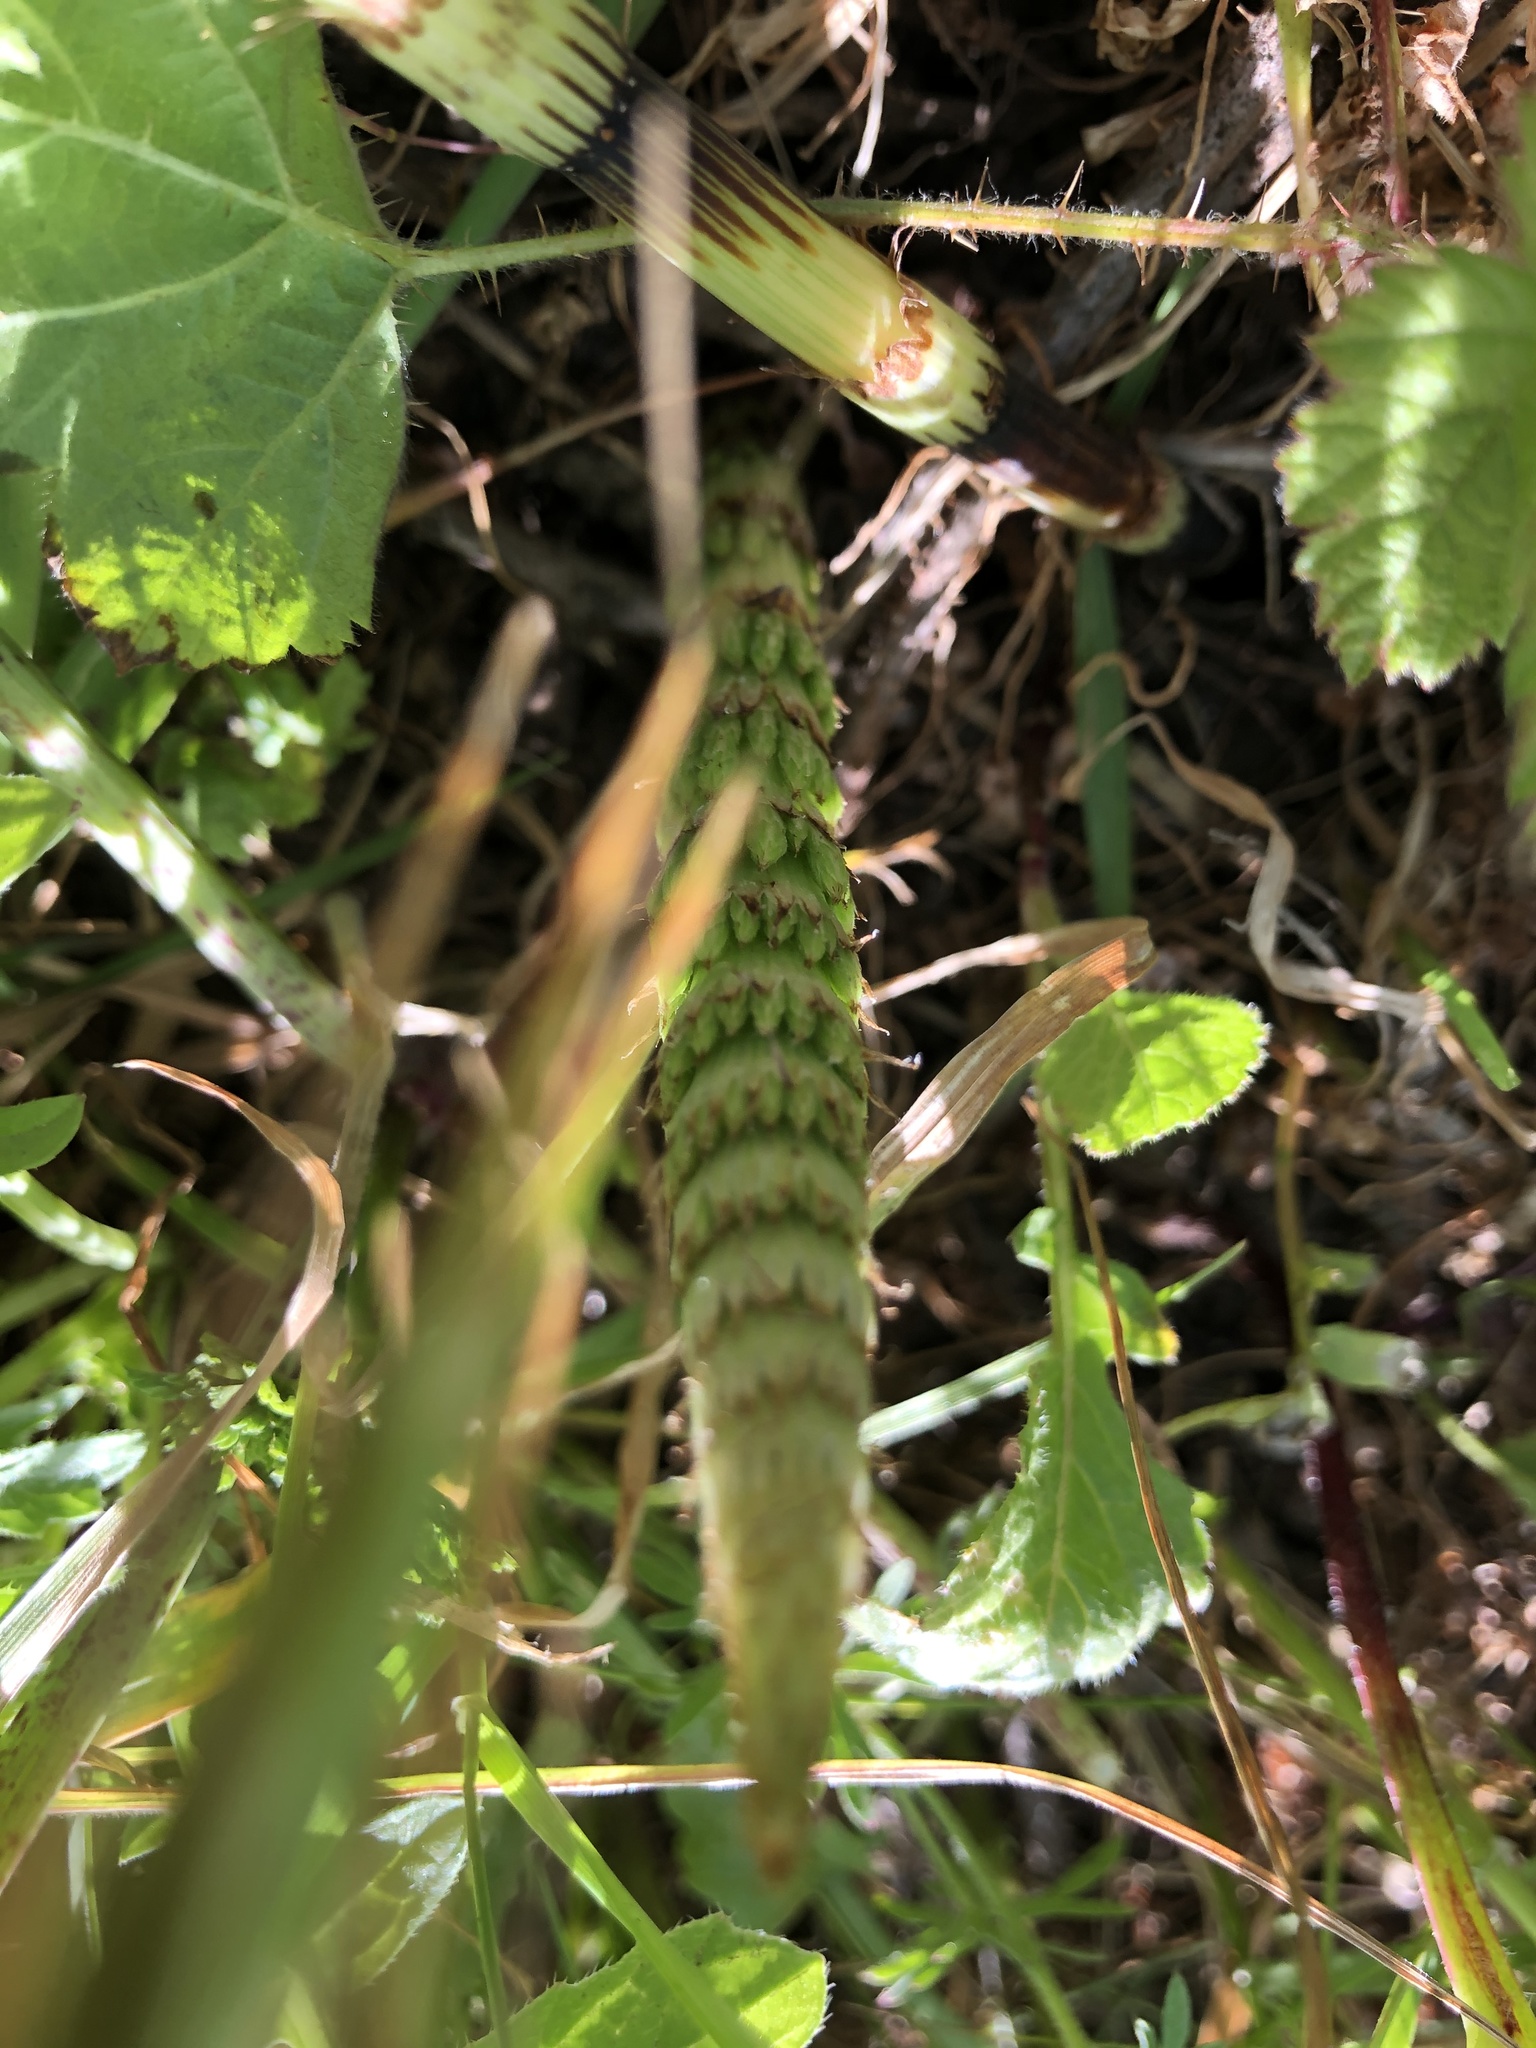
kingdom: Plantae
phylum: Tracheophyta
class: Polypodiopsida
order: Equisetales
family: Equisetaceae
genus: Equisetum
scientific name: Equisetum telmateia
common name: Great horsetail
